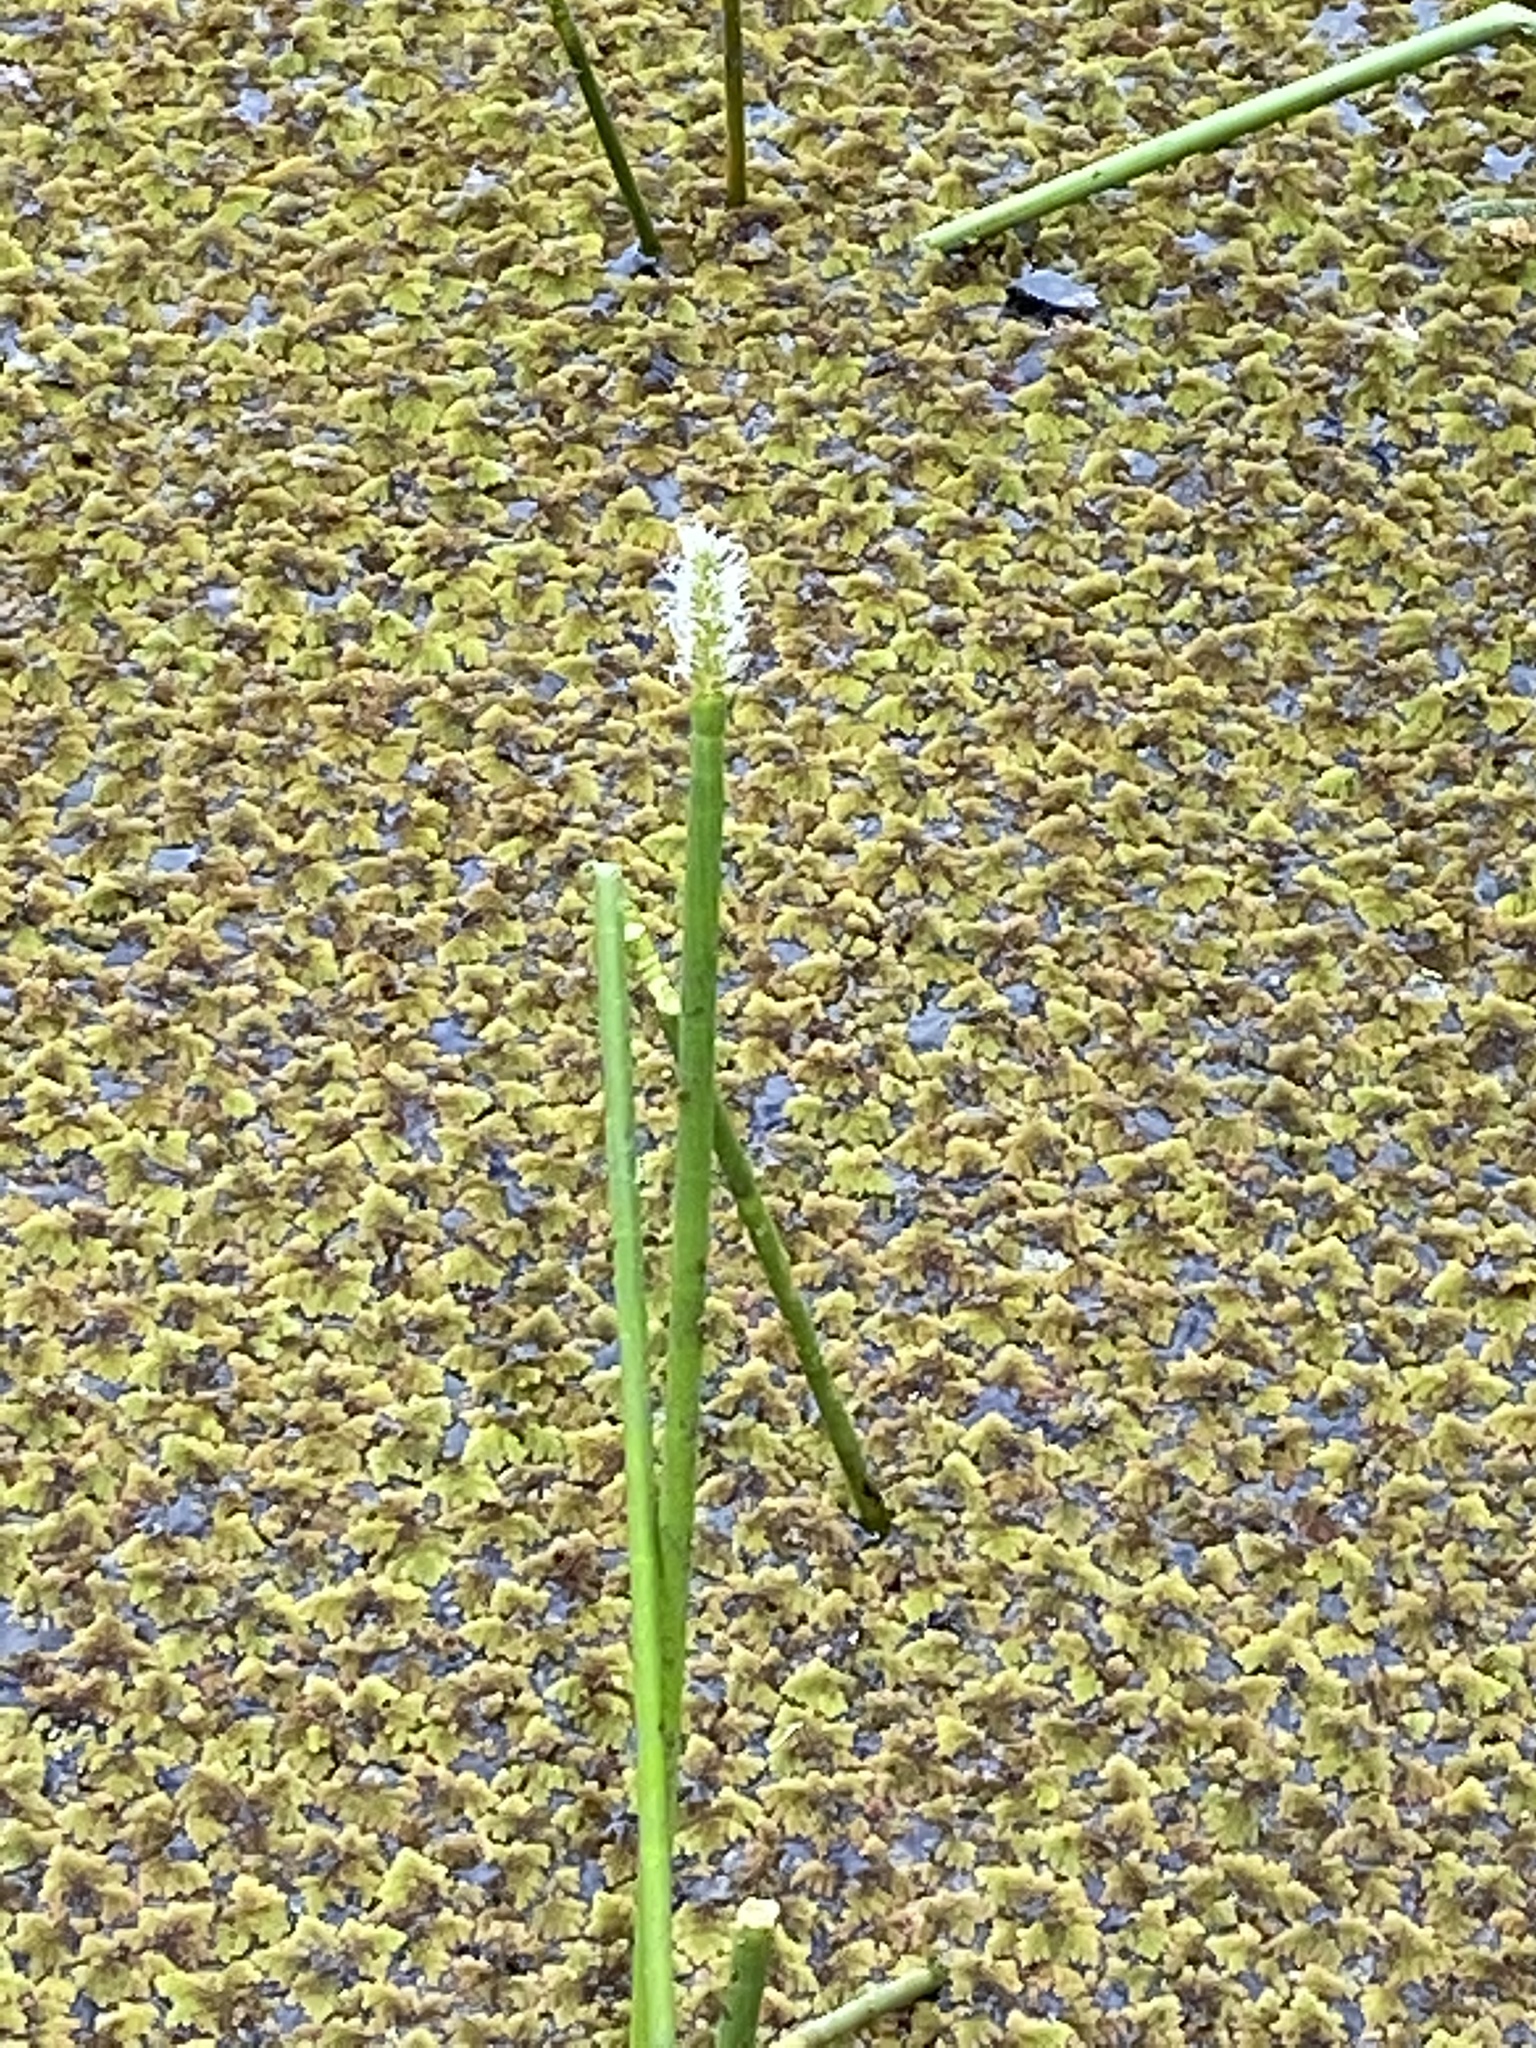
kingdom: Plantae
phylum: Tracheophyta
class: Liliopsida
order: Poales
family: Cyperaceae
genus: Eleocharis
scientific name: Eleocharis interstincta
